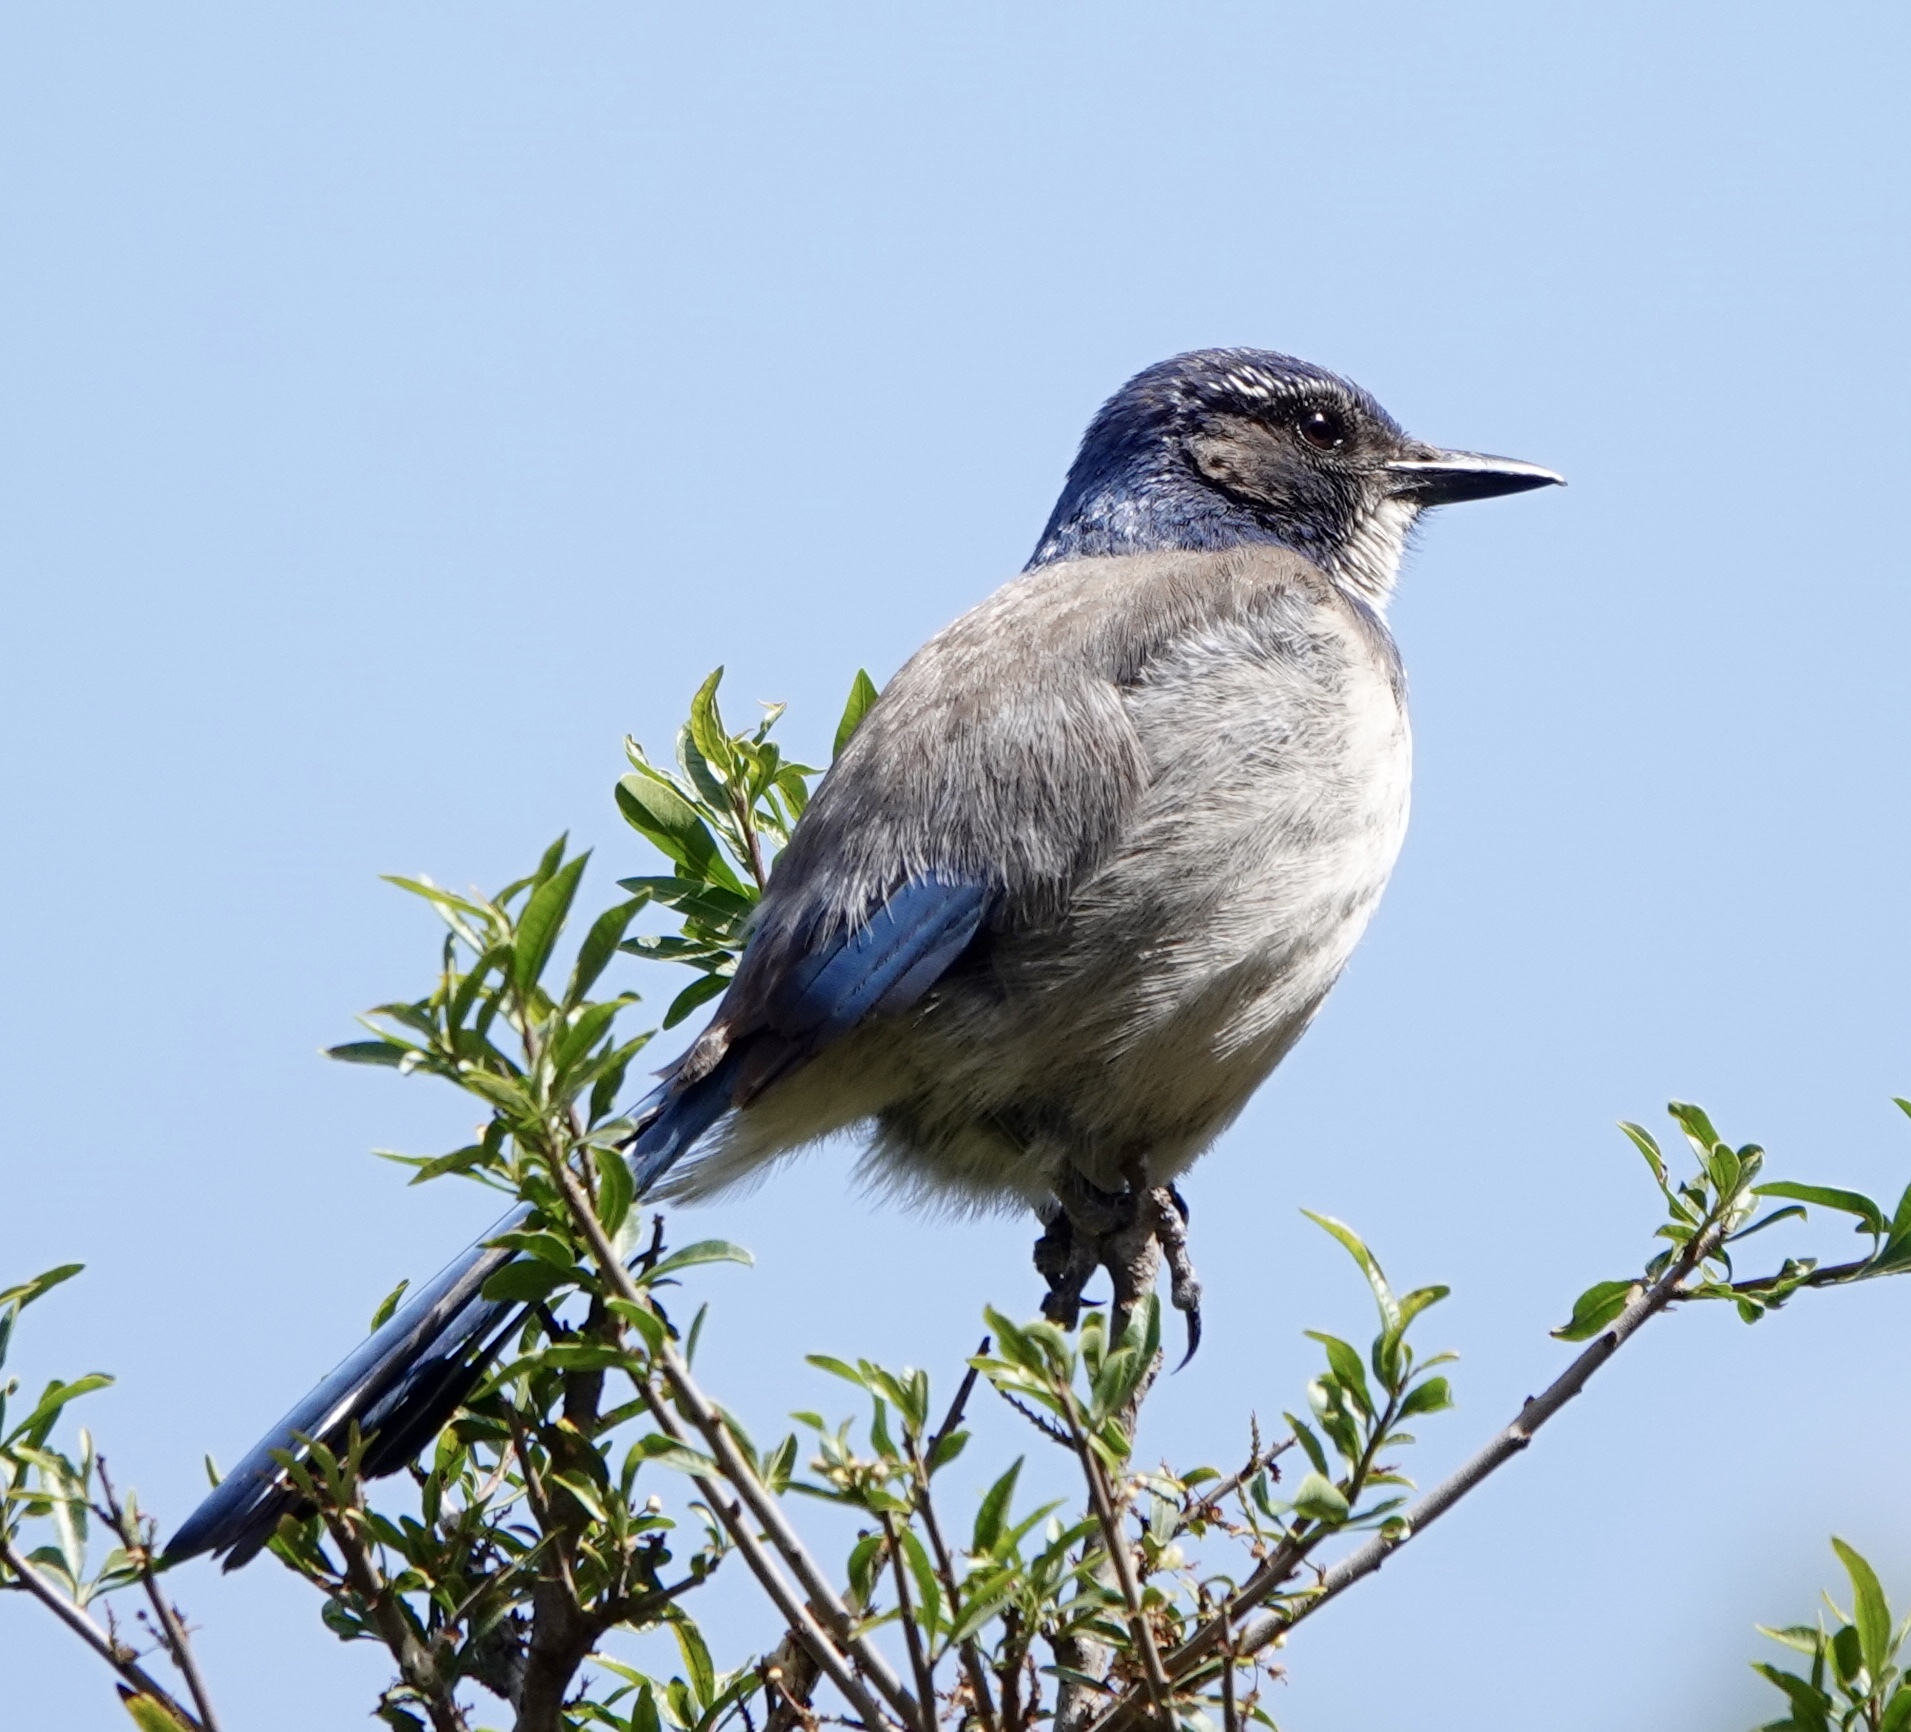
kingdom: Animalia
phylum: Chordata
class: Aves
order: Passeriformes
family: Corvidae
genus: Aphelocoma
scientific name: Aphelocoma californica
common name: California scrub-jay
